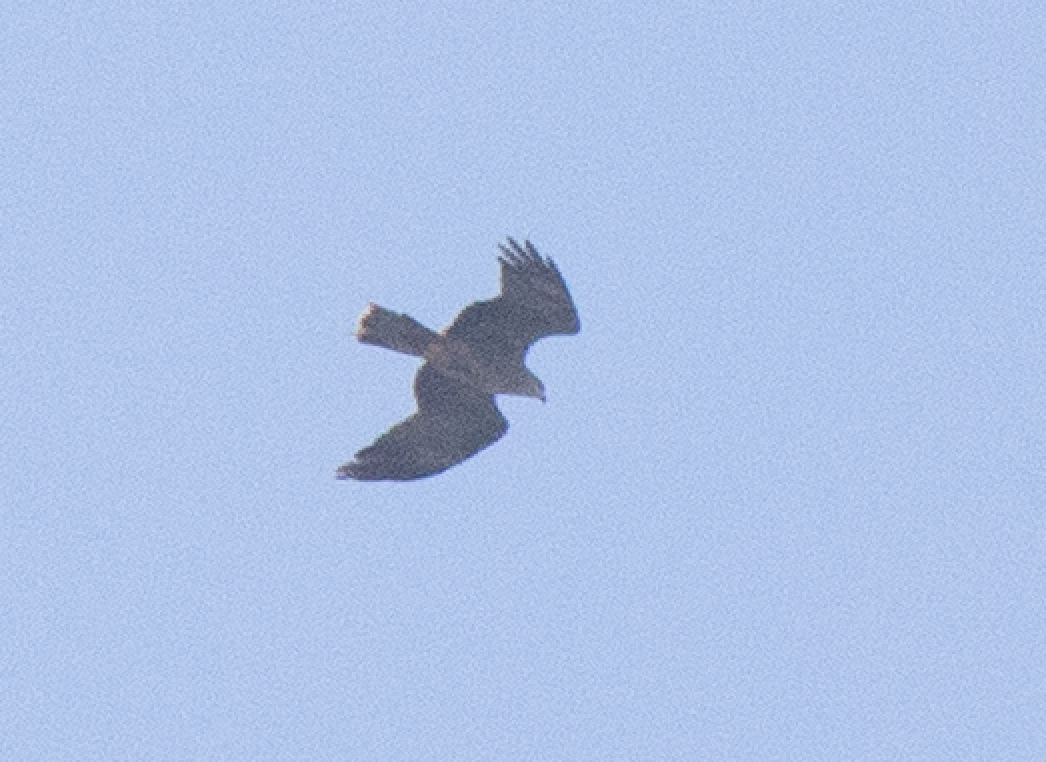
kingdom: Animalia
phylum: Chordata
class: Aves
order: Accipitriformes
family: Accipitridae
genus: Milvus
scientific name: Milvus migrans
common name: Black kite
